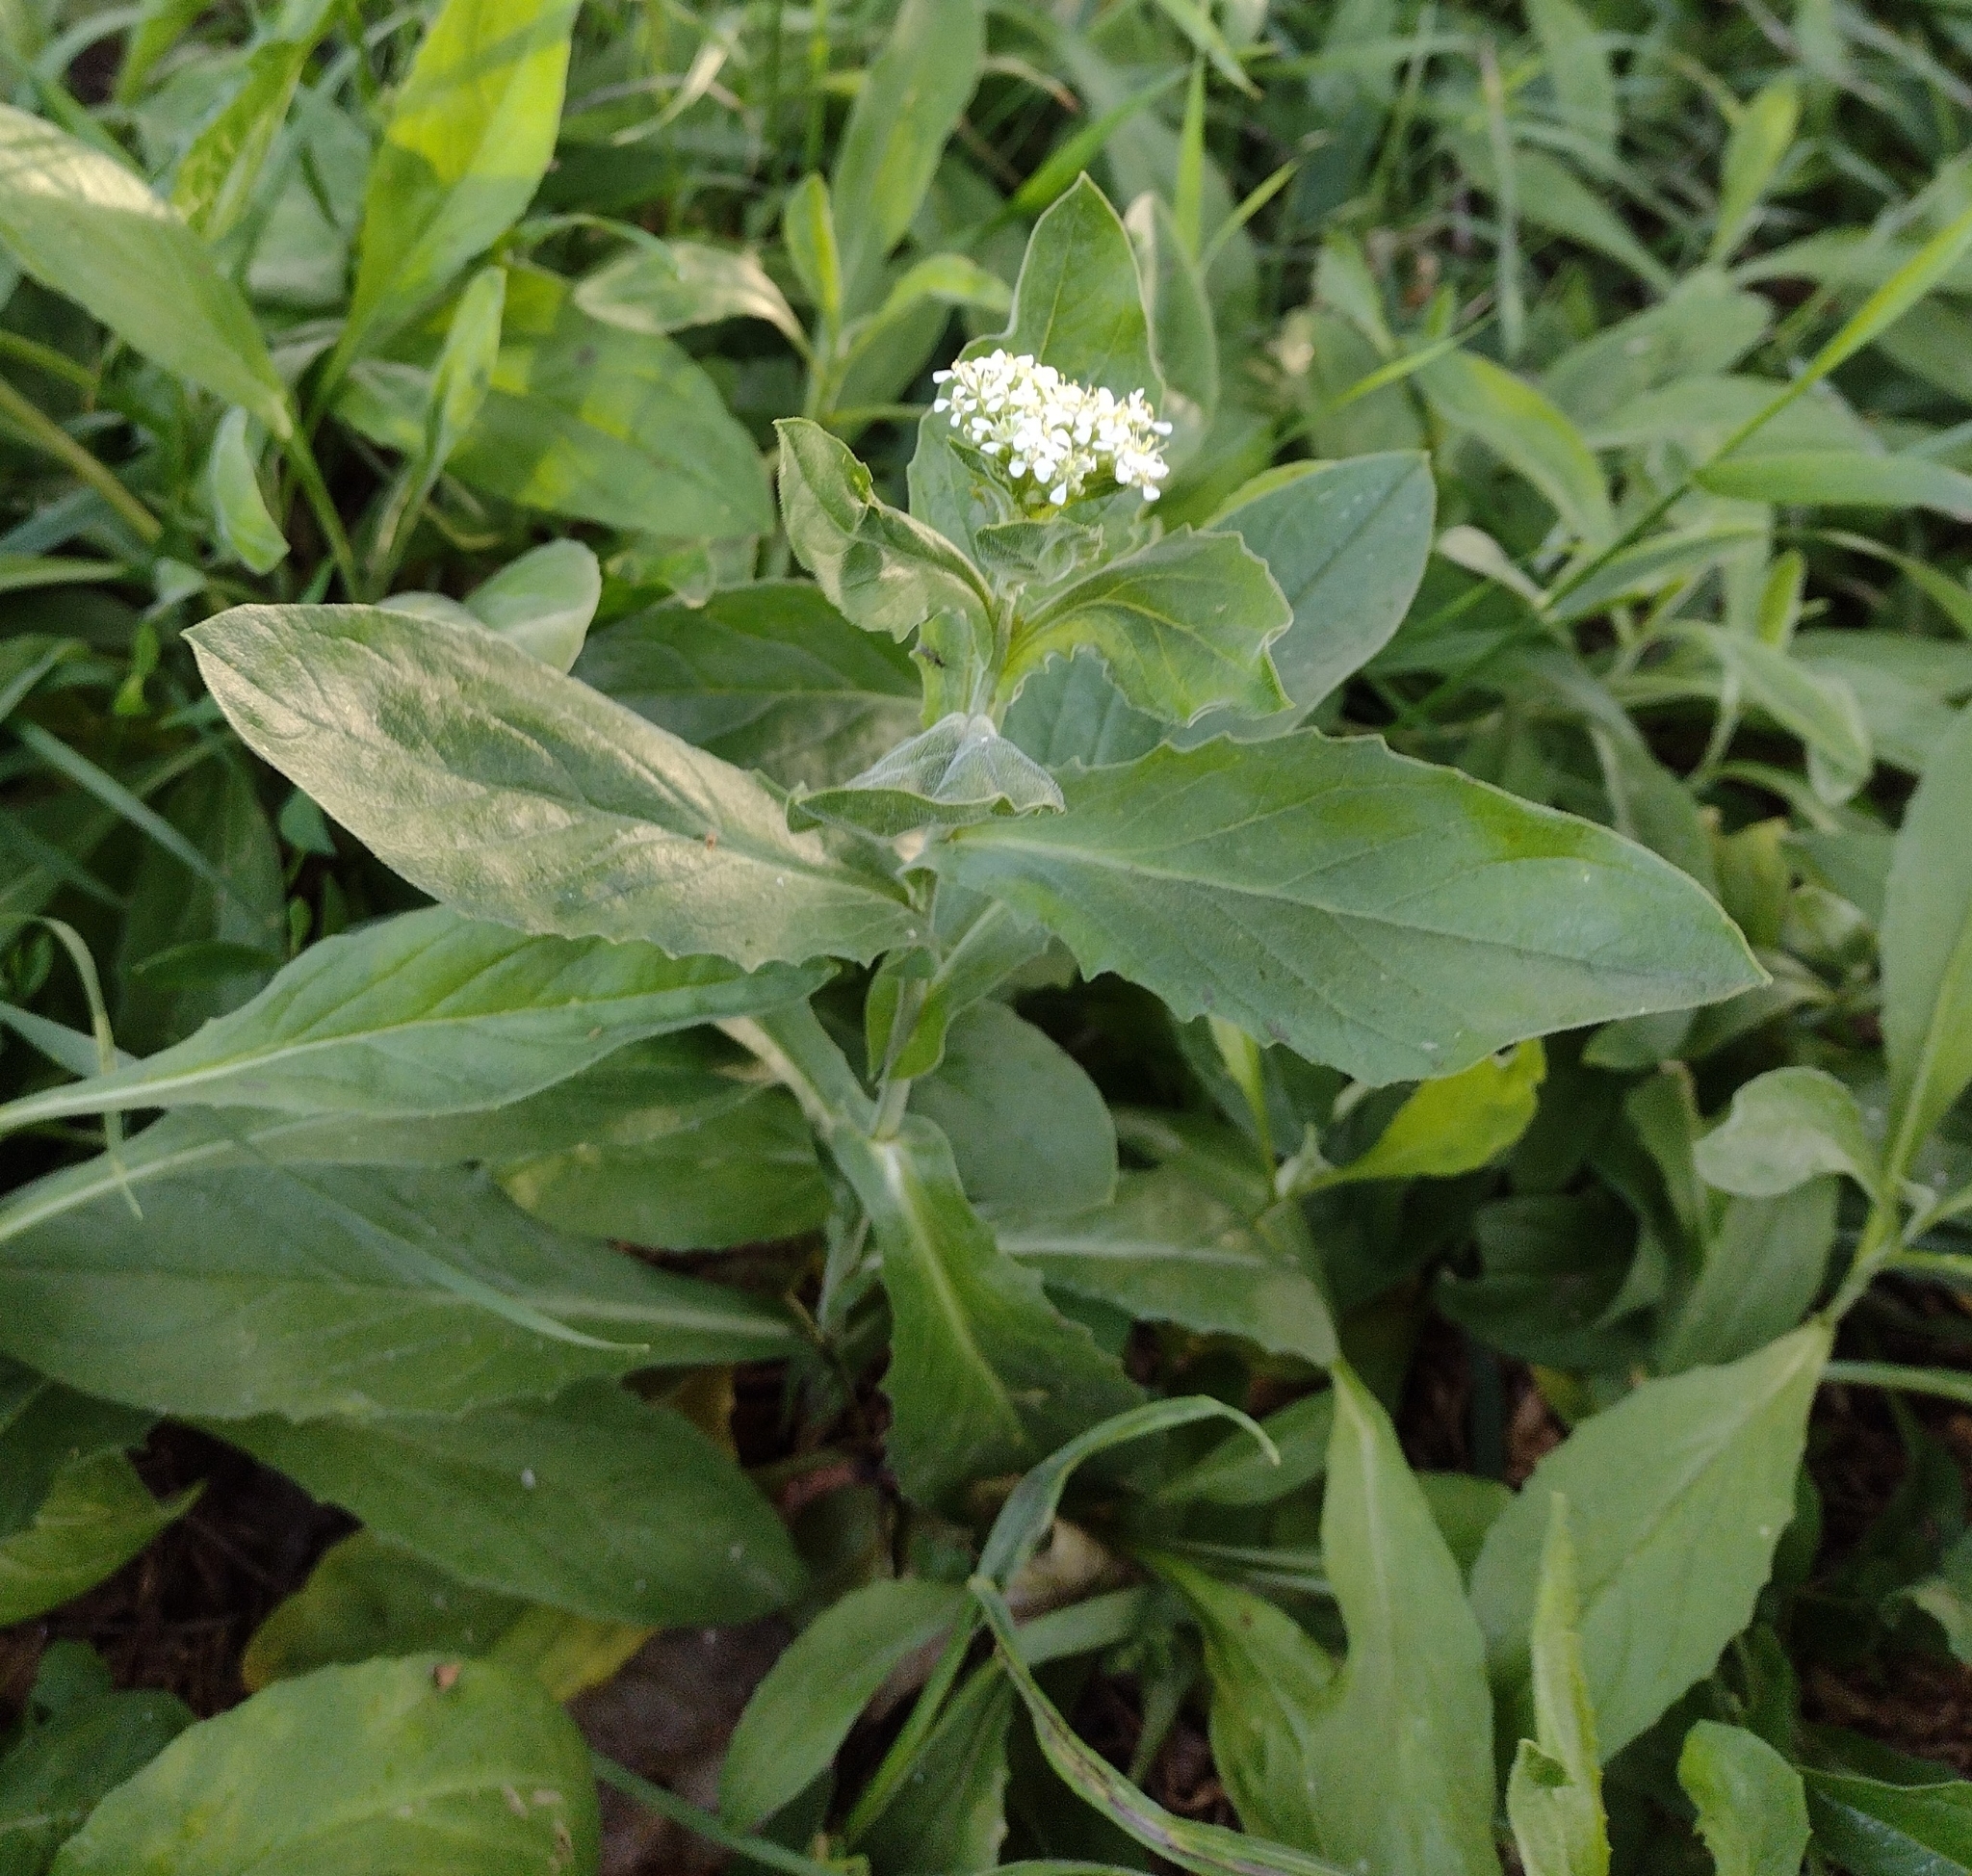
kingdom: Plantae
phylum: Tracheophyta
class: Magnoliopsida
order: Brassicales
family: Brassicaceae
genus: Lepidium
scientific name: Lepidium draba
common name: Hoary cress
